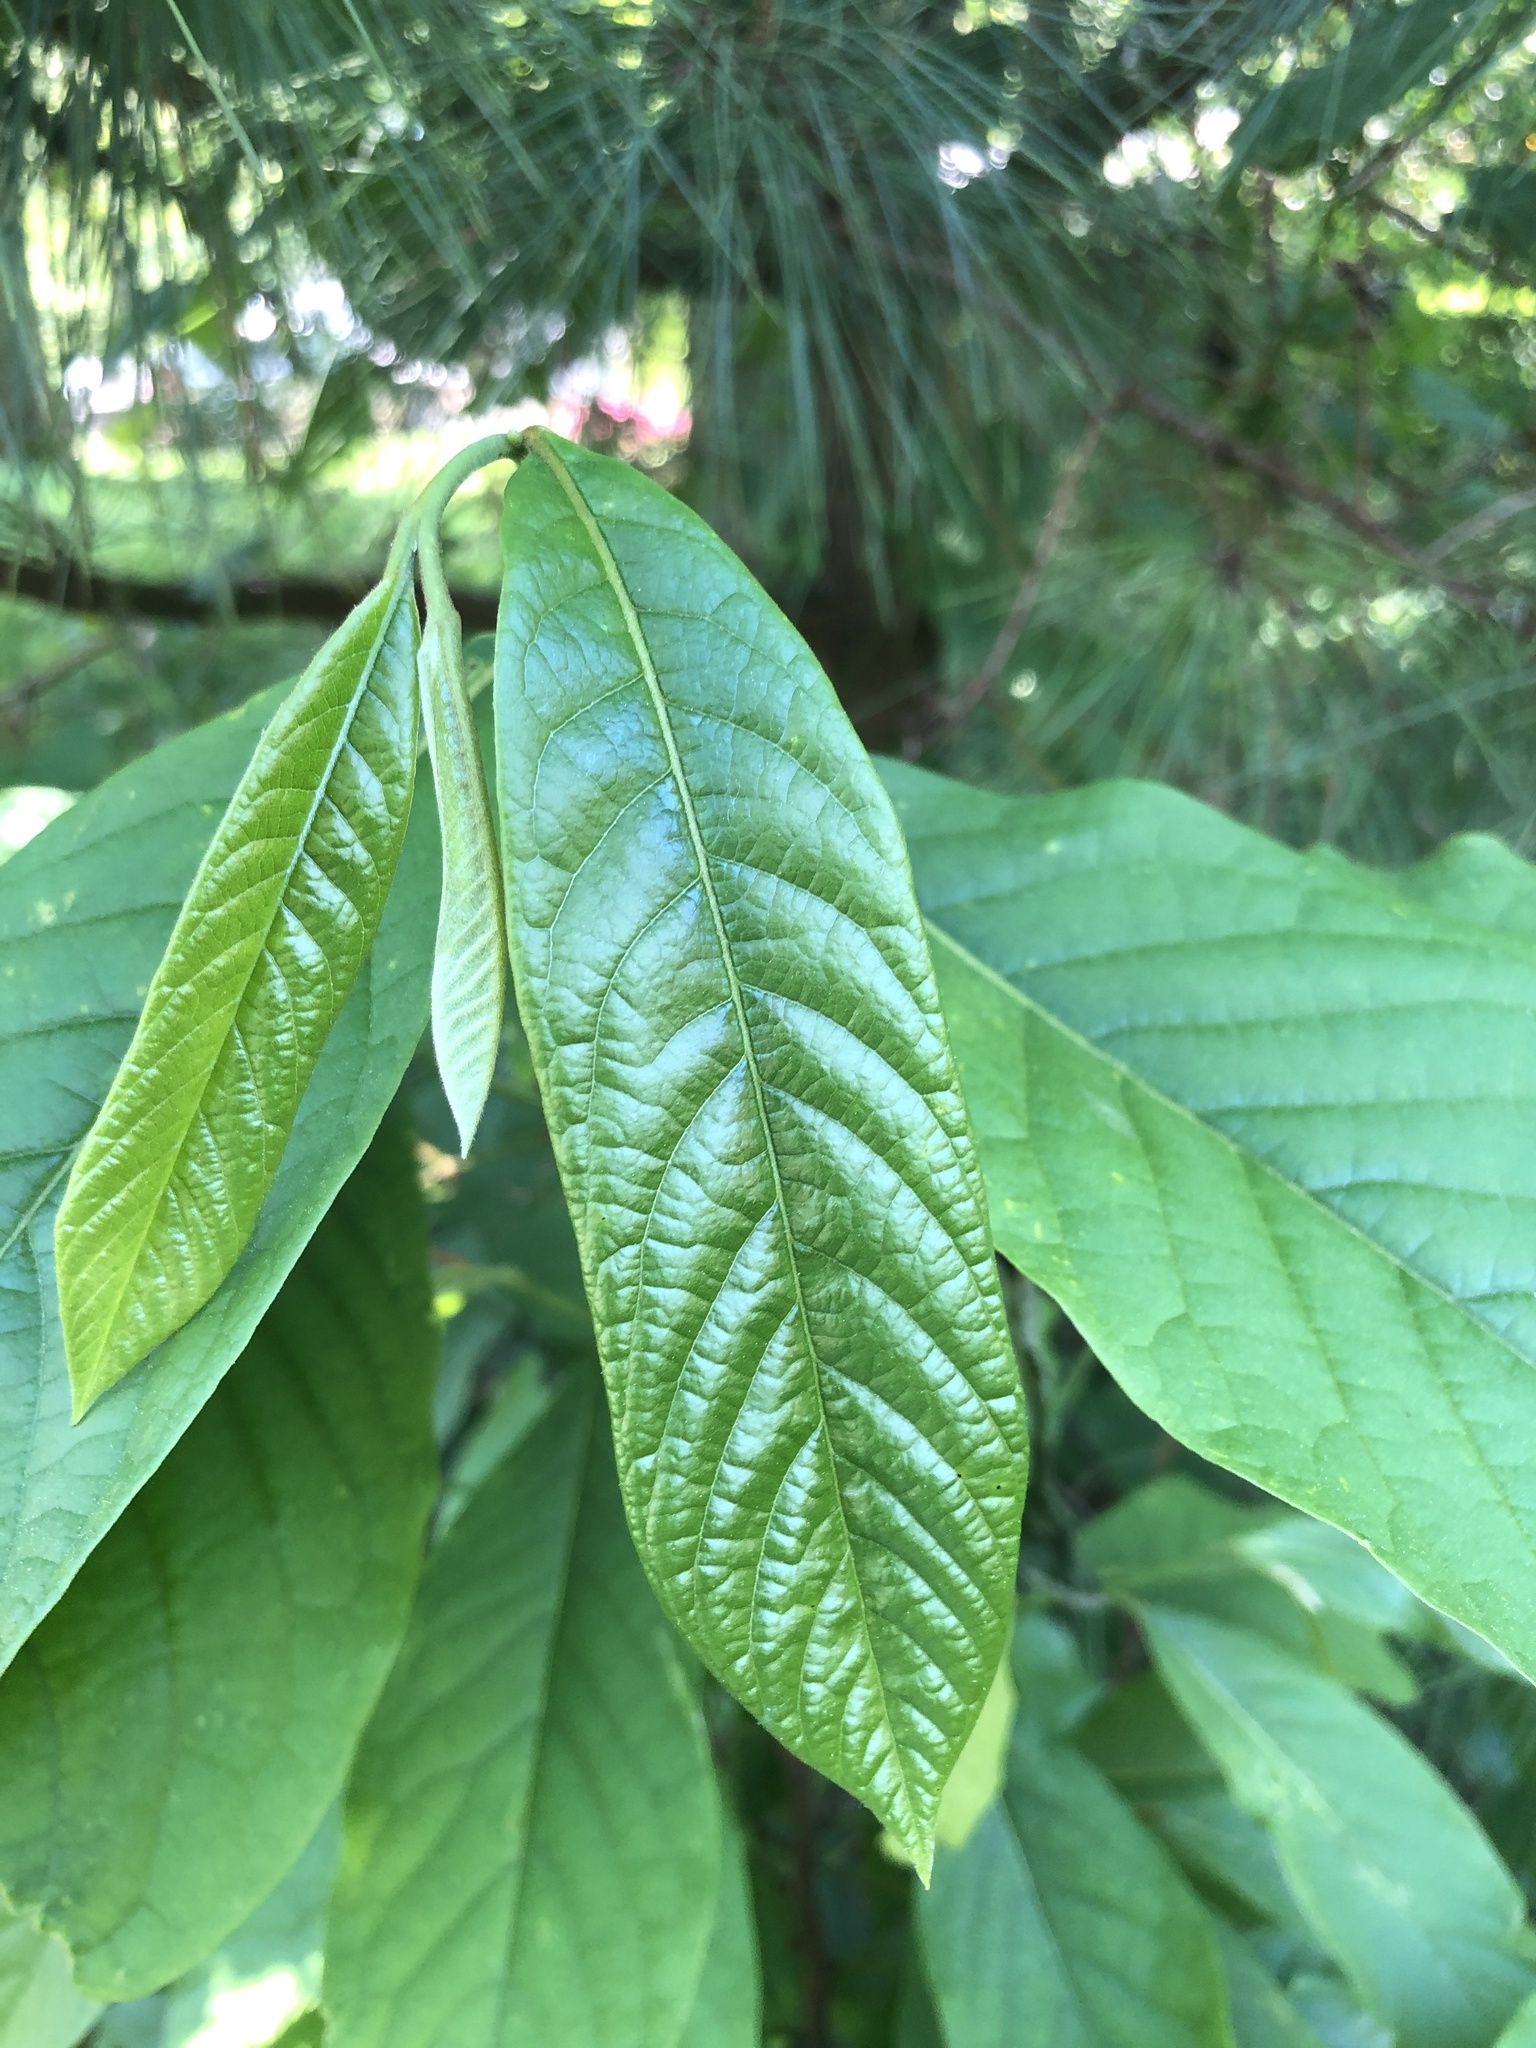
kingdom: Plantae
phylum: Tracheophyta
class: Magnoliopsida
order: Magnoliales
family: Annonaceae
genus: Asimina
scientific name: Asimina triloba
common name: Dog-banana
